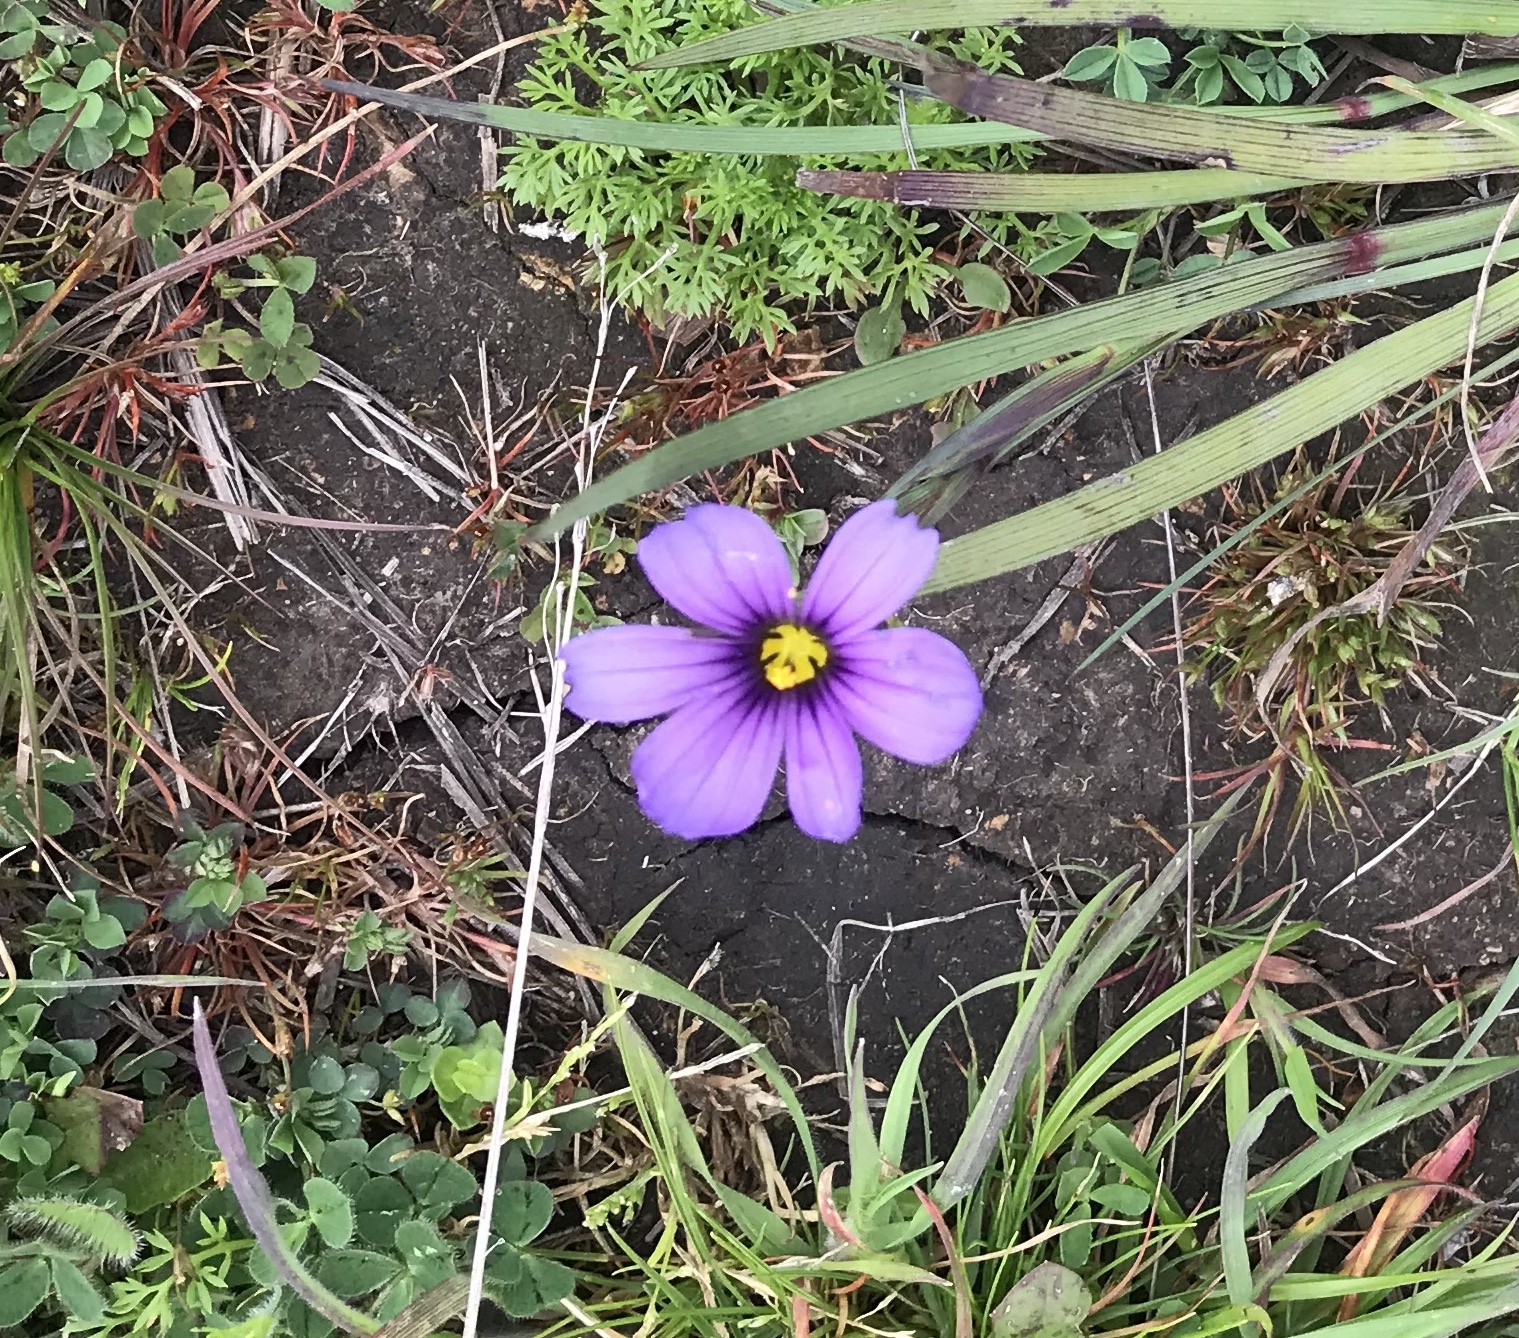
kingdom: Plantae
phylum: Tracheophyta
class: Liliopsida
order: Asparagales
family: Iridaceae
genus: Sisyrinchium
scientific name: Sisyrinchium bellum
